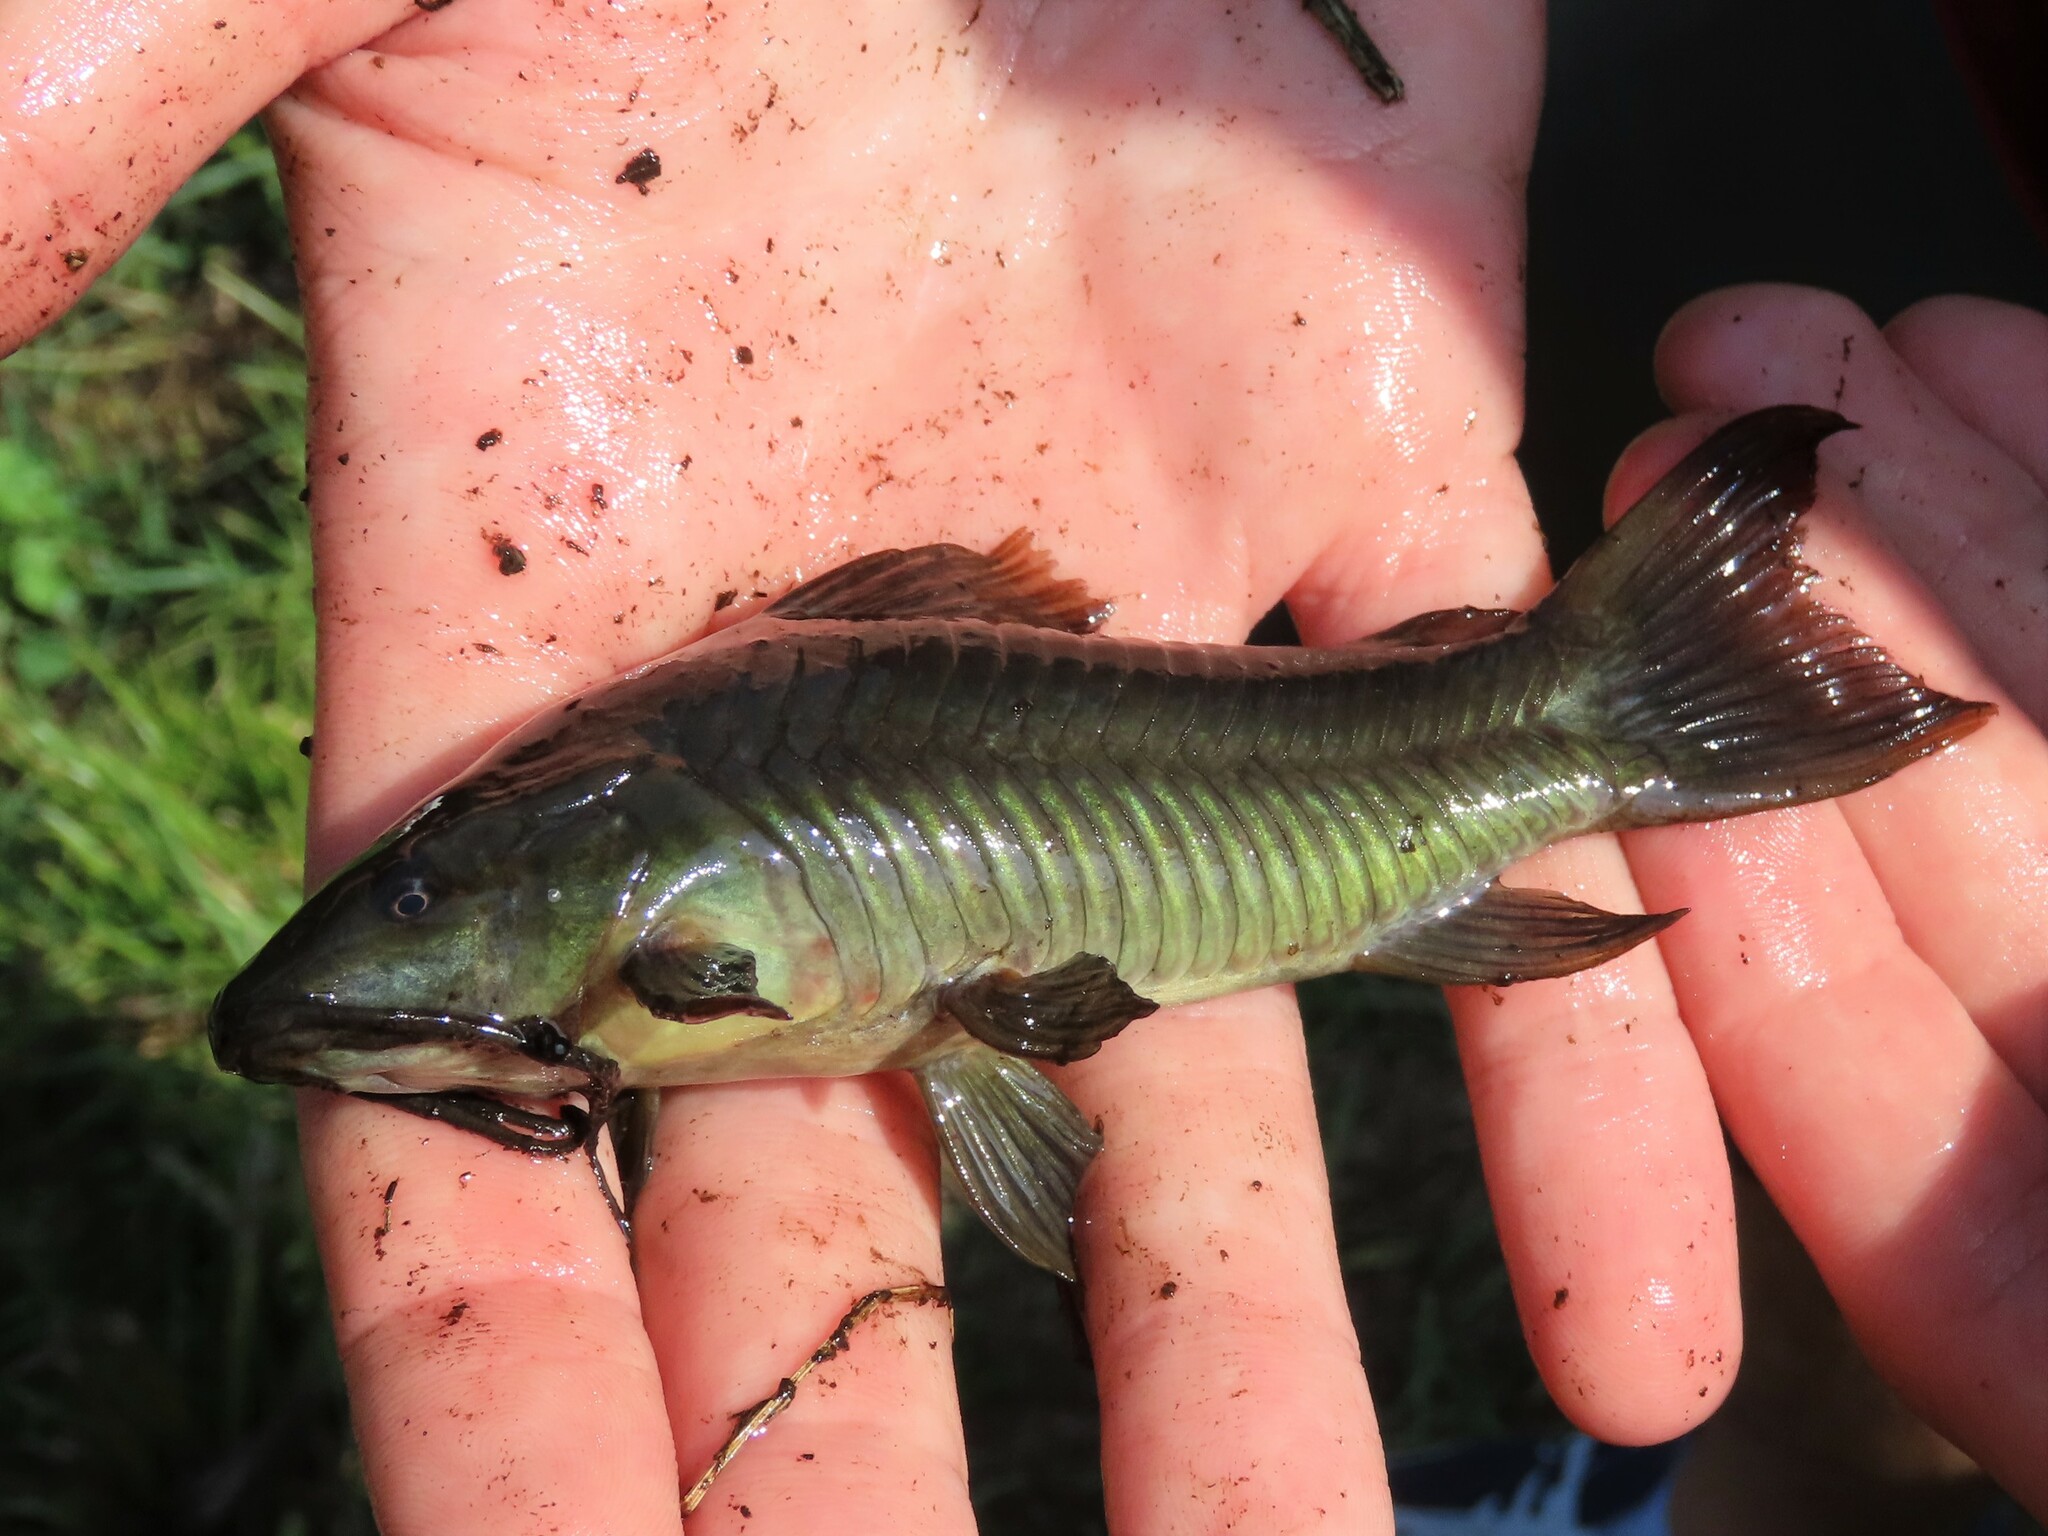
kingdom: Animalia
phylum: Chordata
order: Siluriformes
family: Callichthyidae
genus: Hoplosternum
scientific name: Hoplosternum littorale
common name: Brown hoplo
